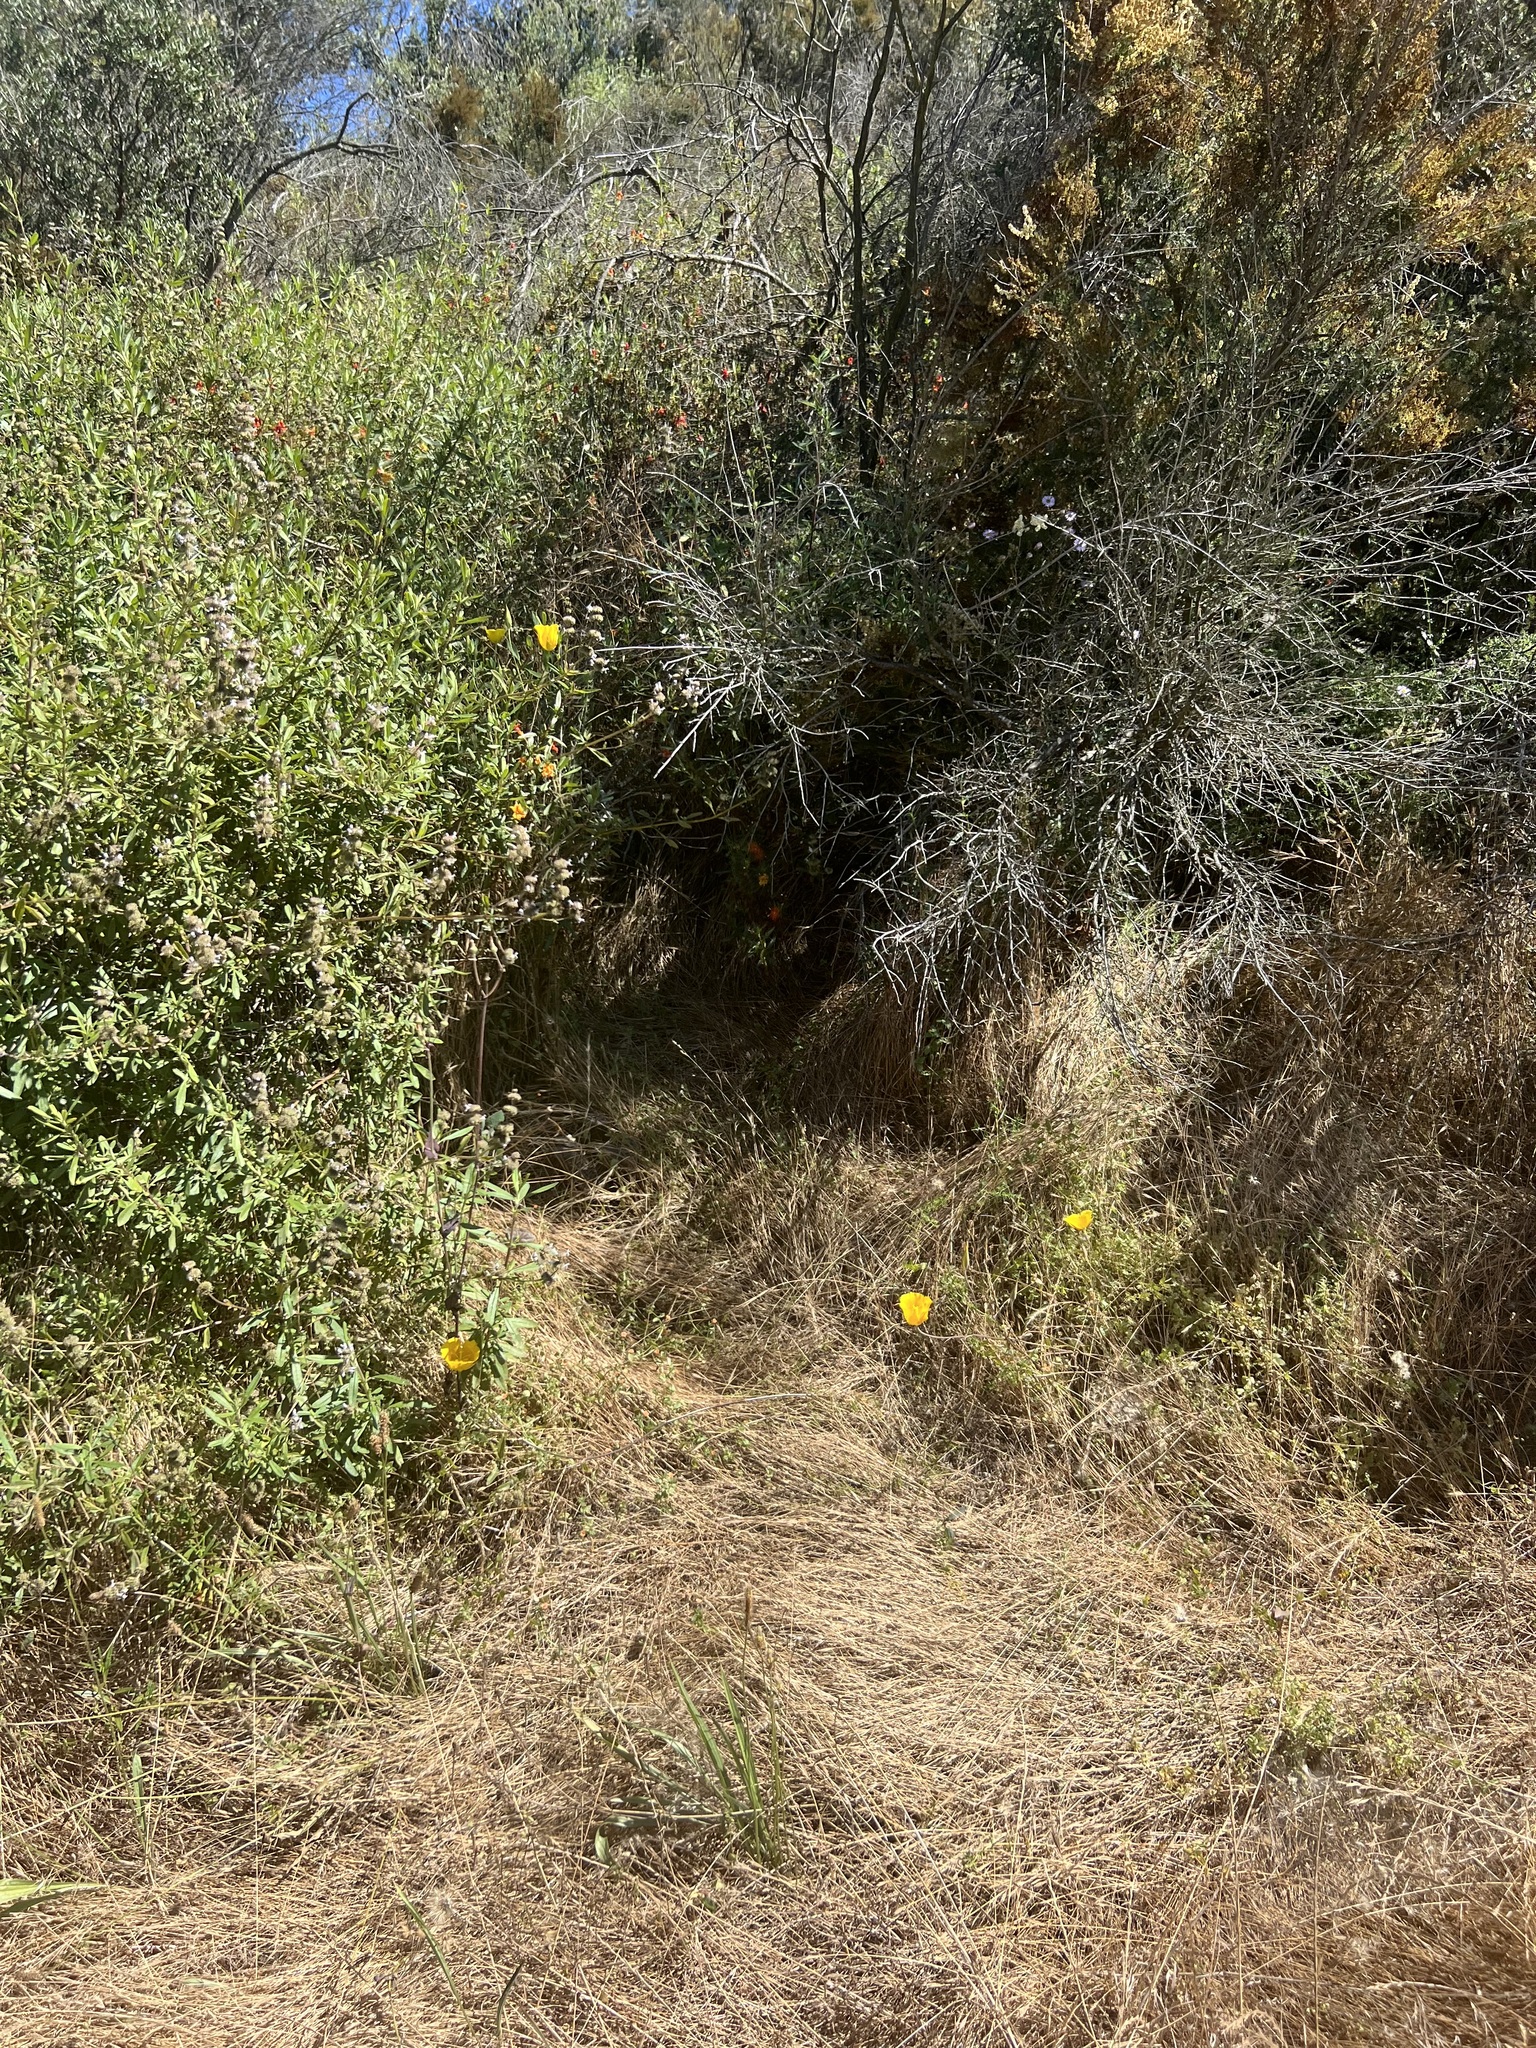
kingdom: Plantae
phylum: Tracheophyta
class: Liliopsida
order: Liliales
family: Liliaceae
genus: Calochortus
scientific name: Calochortus weedii
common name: Weed's mariposa-lily
